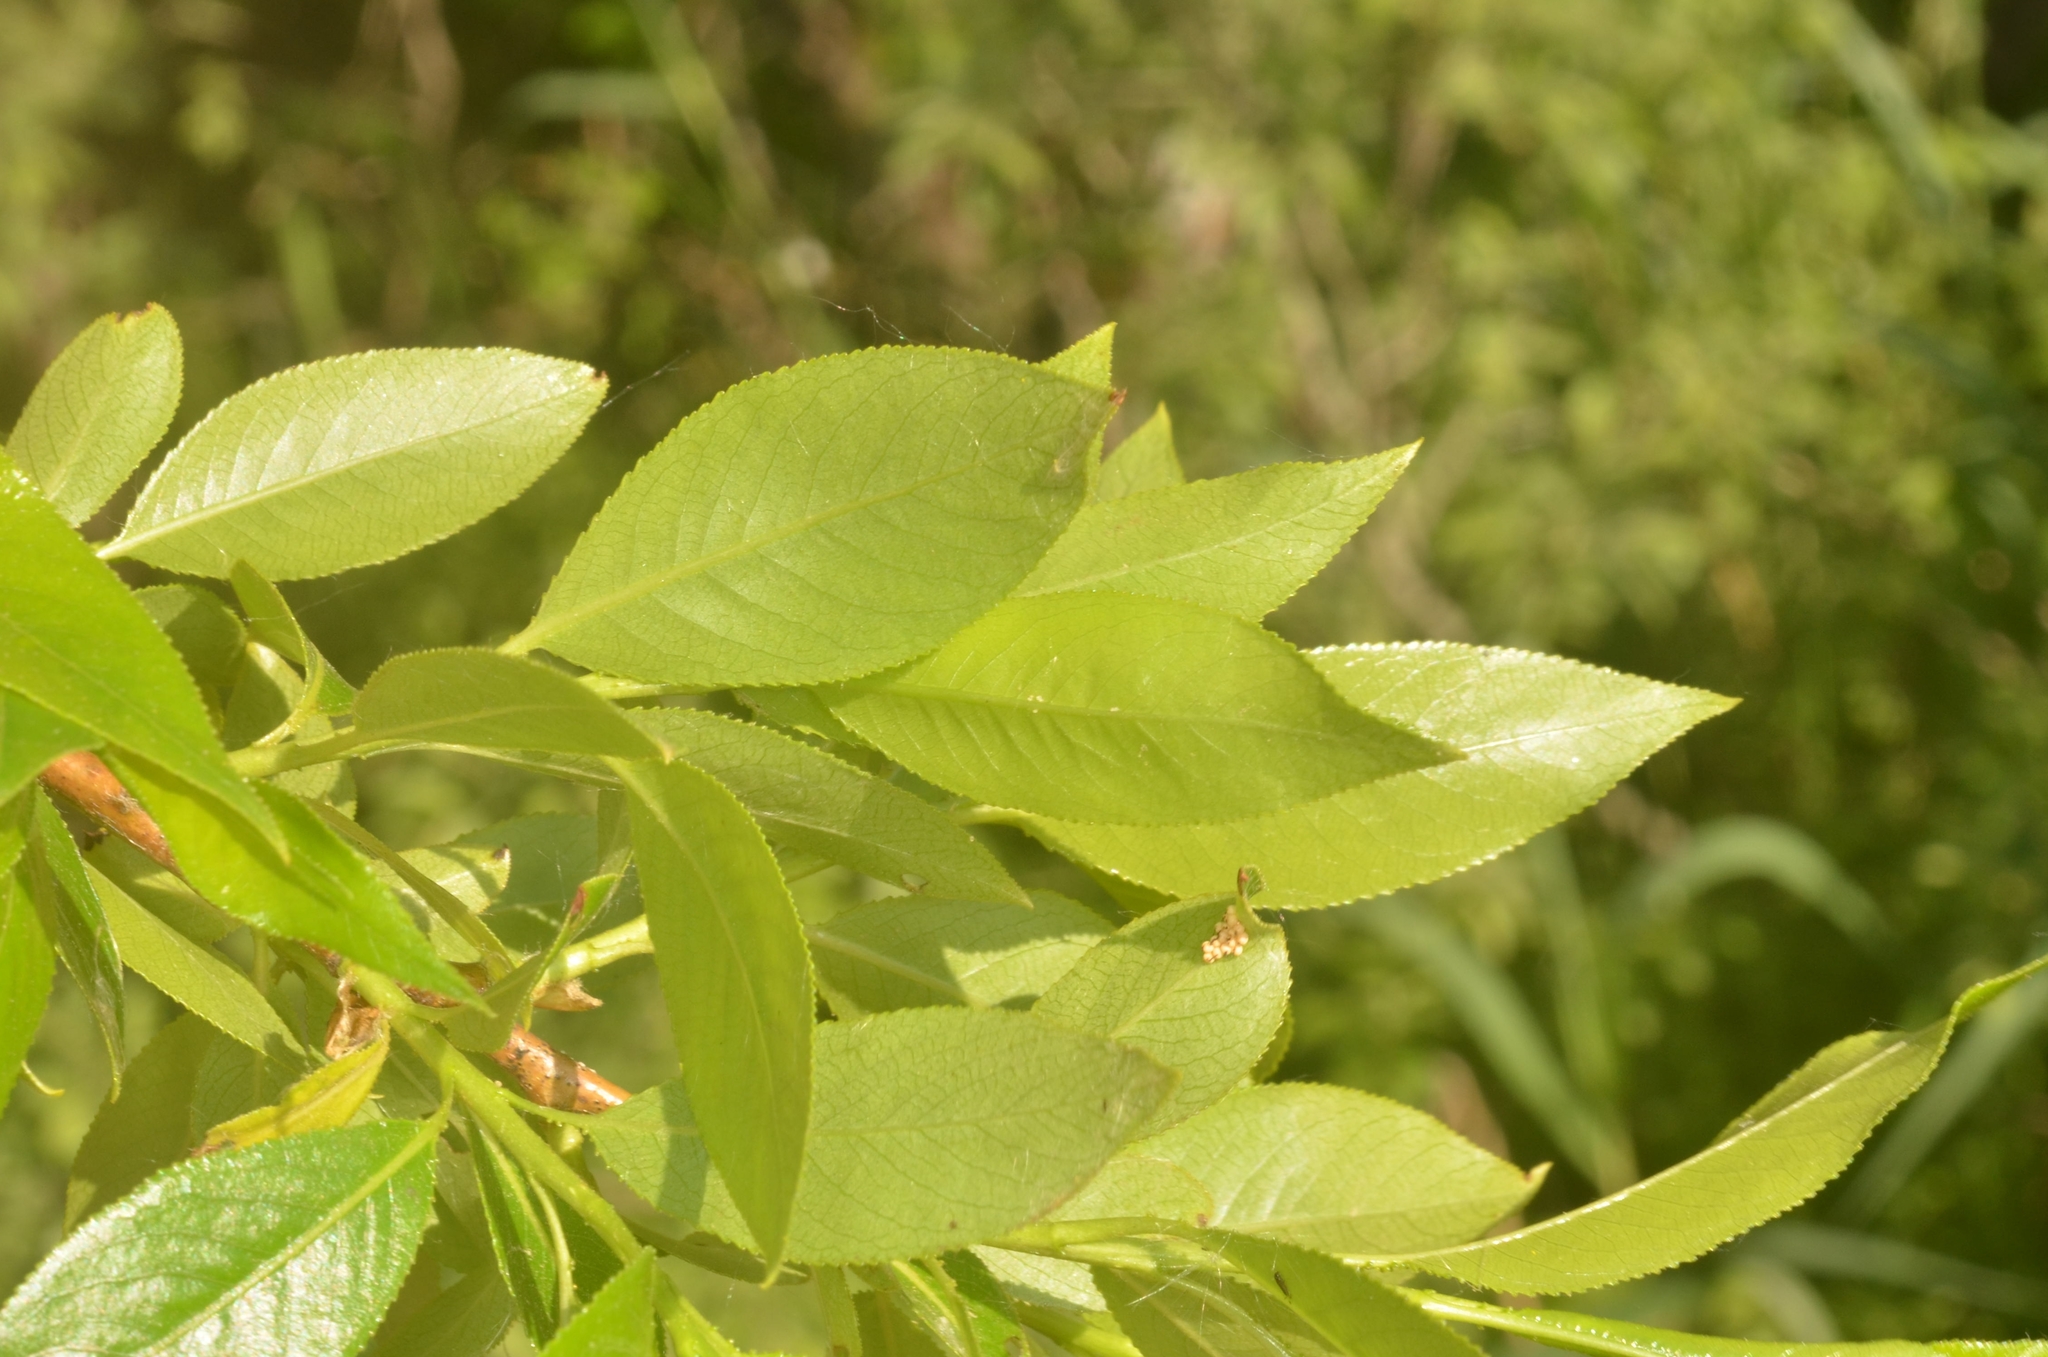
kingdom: Plantae
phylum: Tracheophyta
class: Magnoliopsida
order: Malpighiales
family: Salicaceae
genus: Salix
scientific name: Salix pentandra
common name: Bay willow
